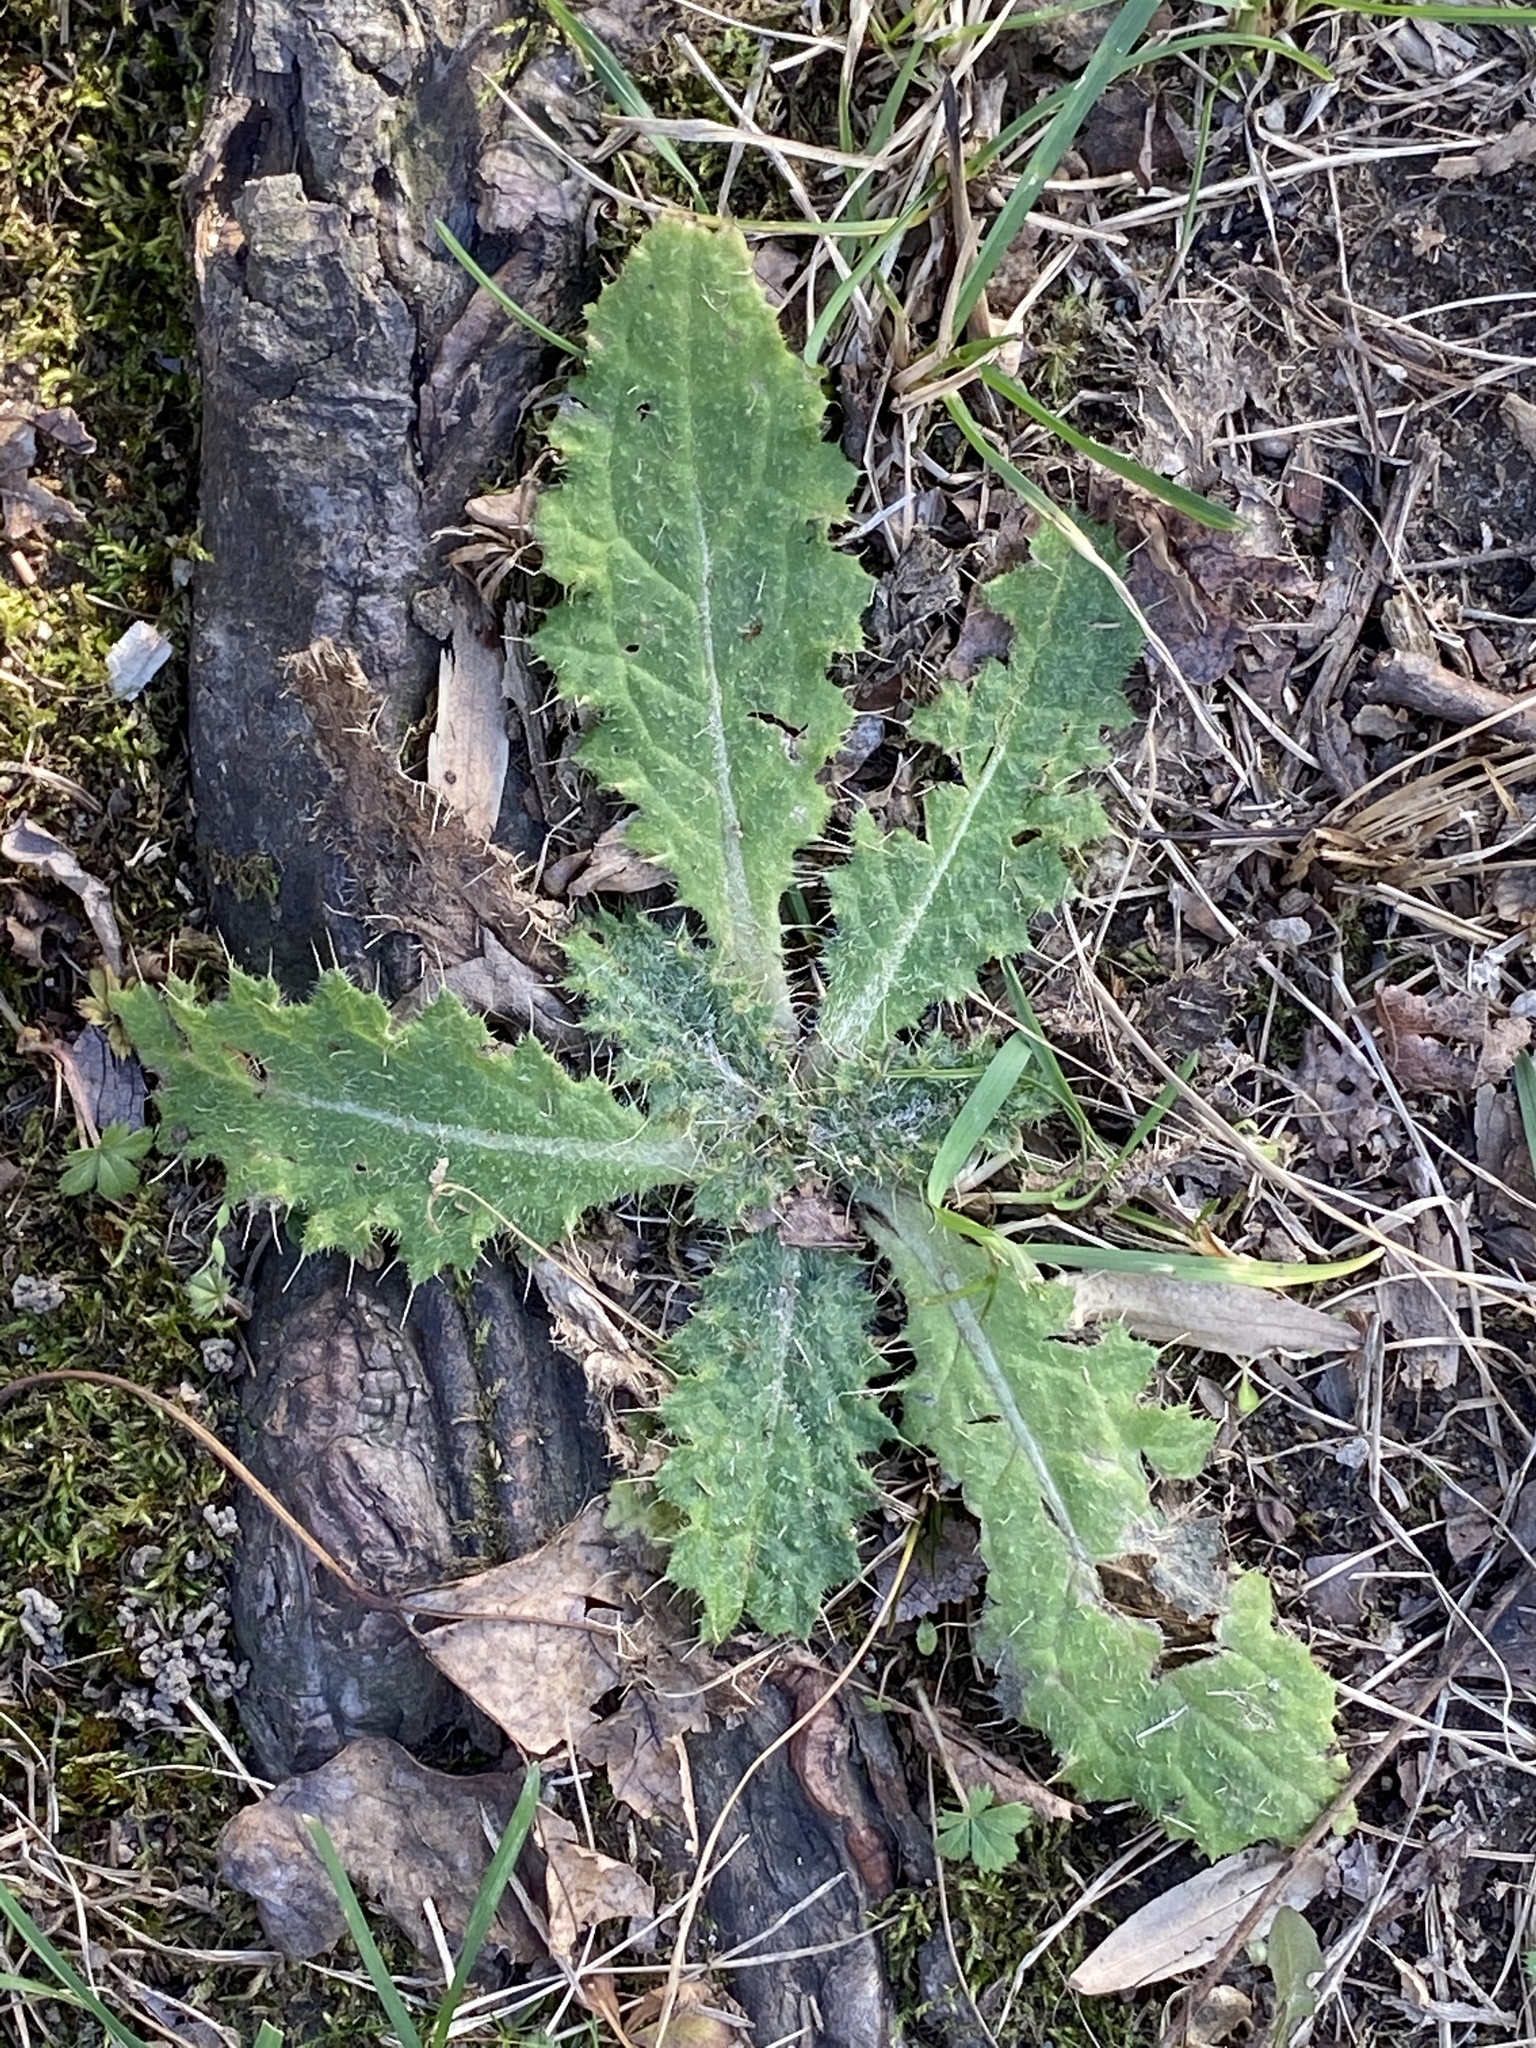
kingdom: Plantae
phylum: Tracheophyta
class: Magnoliopsida
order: Asterales
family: Asteraceae
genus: Cirsium
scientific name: Cirsium vulgare
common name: Bull thistle
